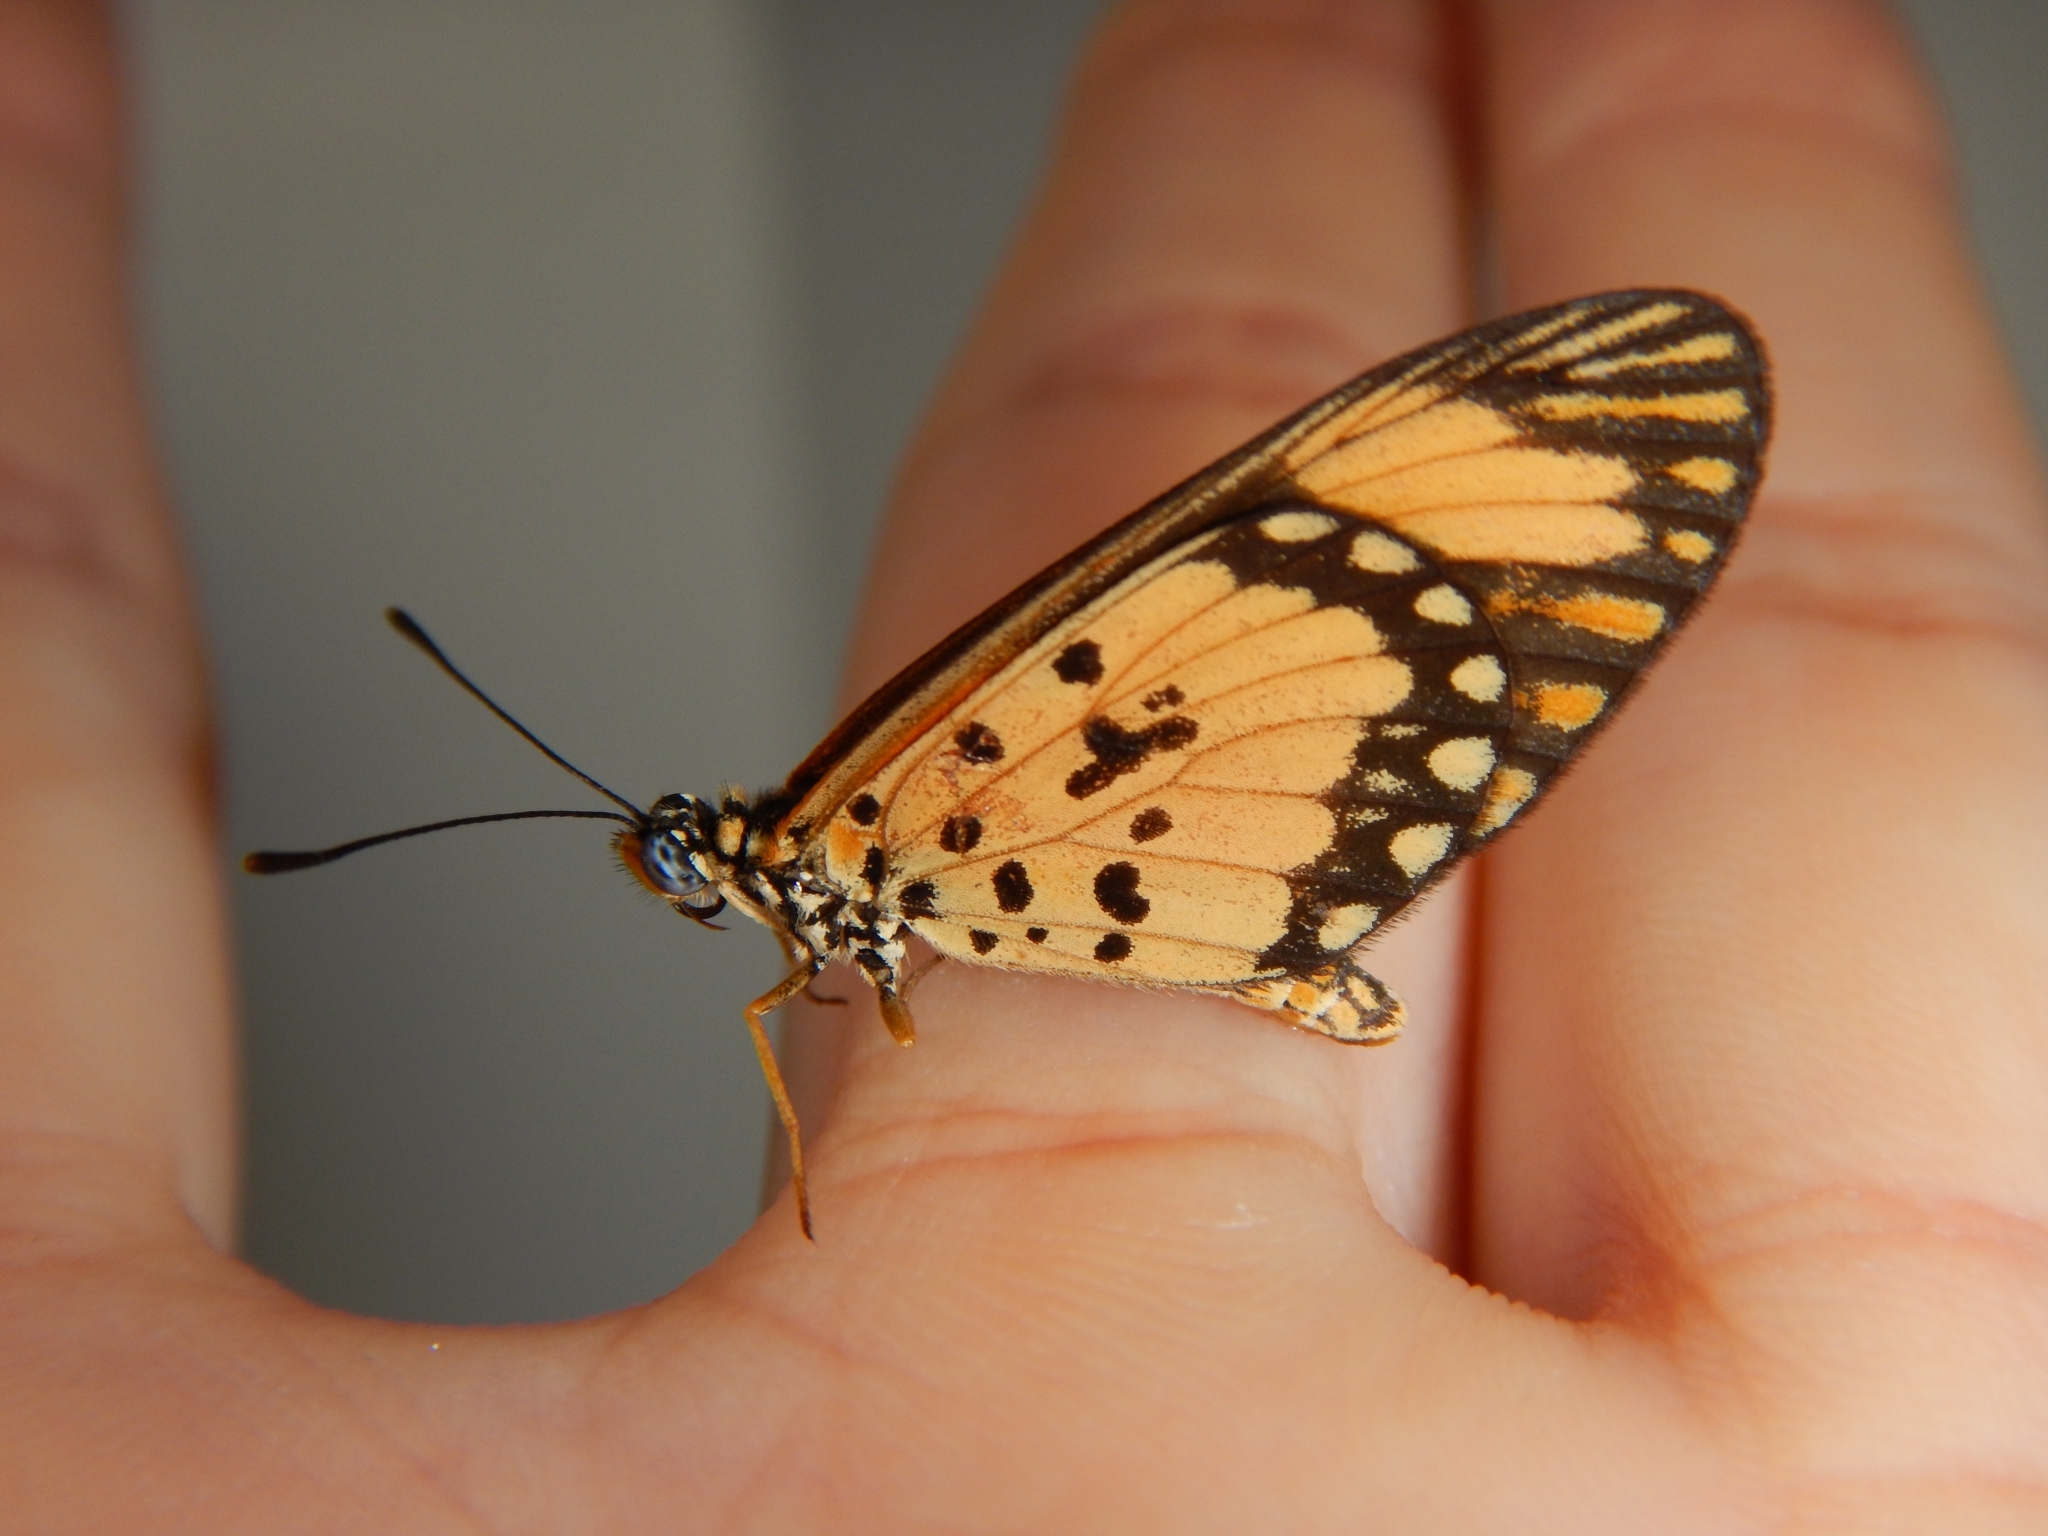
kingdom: Animalia
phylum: Arthropoda
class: Insecta
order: Lepidoptera
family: Nymphalidae
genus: Acraea
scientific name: Acraea Telchinia serena
